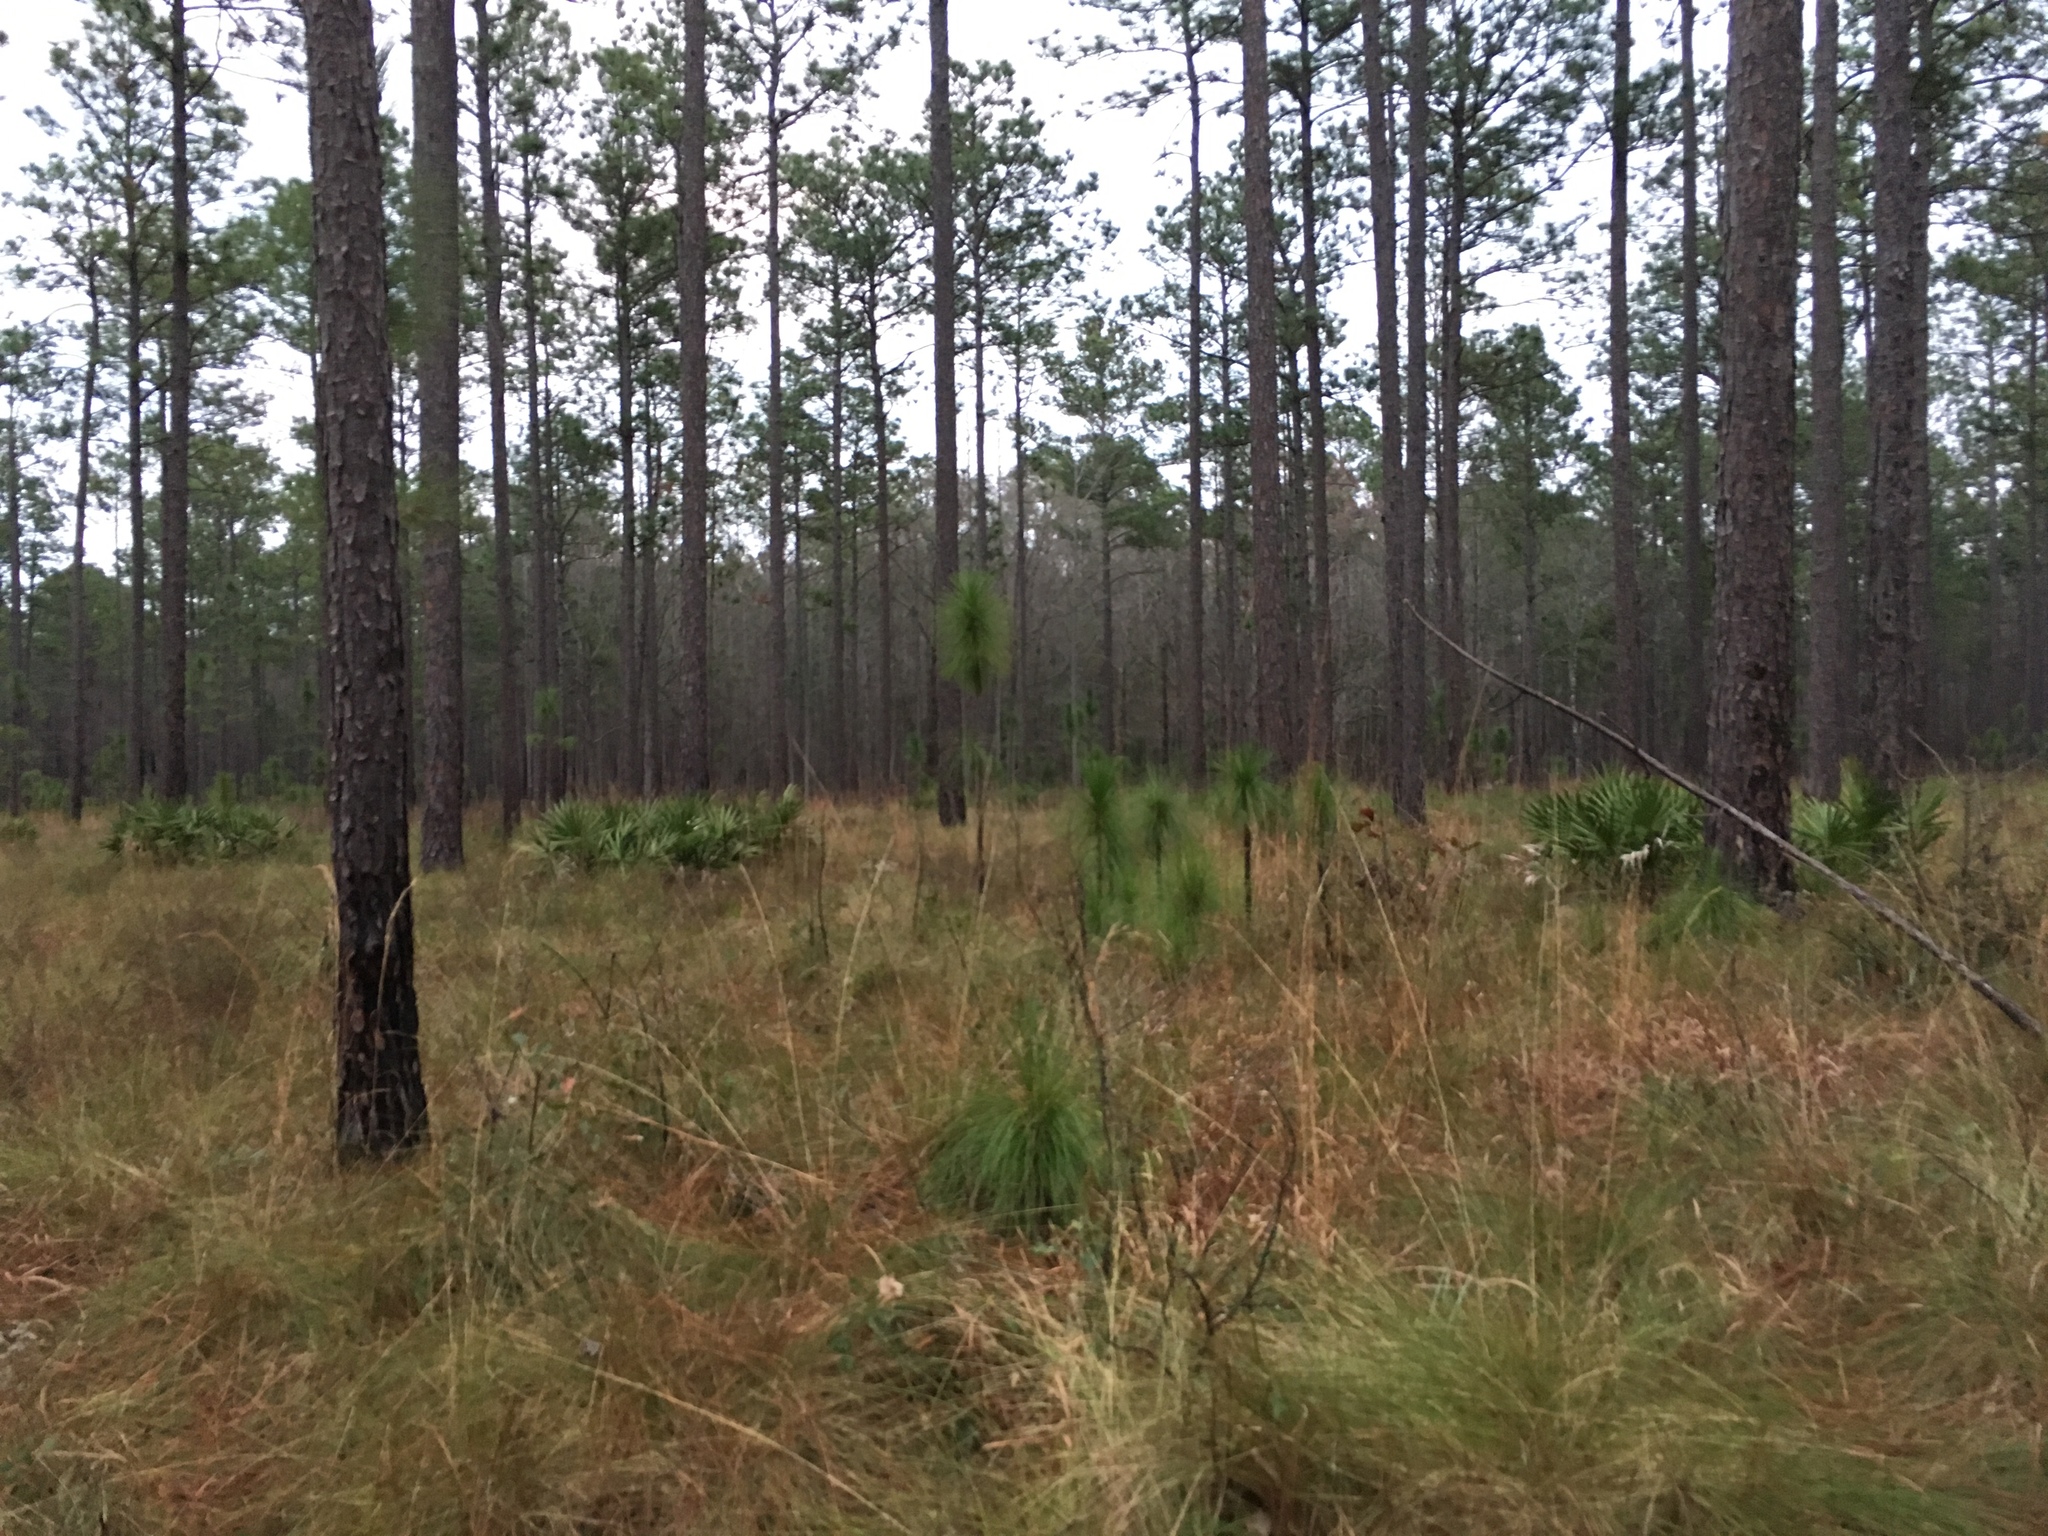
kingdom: Plantae
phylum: Tracheophyta
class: Pinopsida
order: Pinales
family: Pinaceae
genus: Pinus
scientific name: Pinus palustris
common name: Longleaf pine
